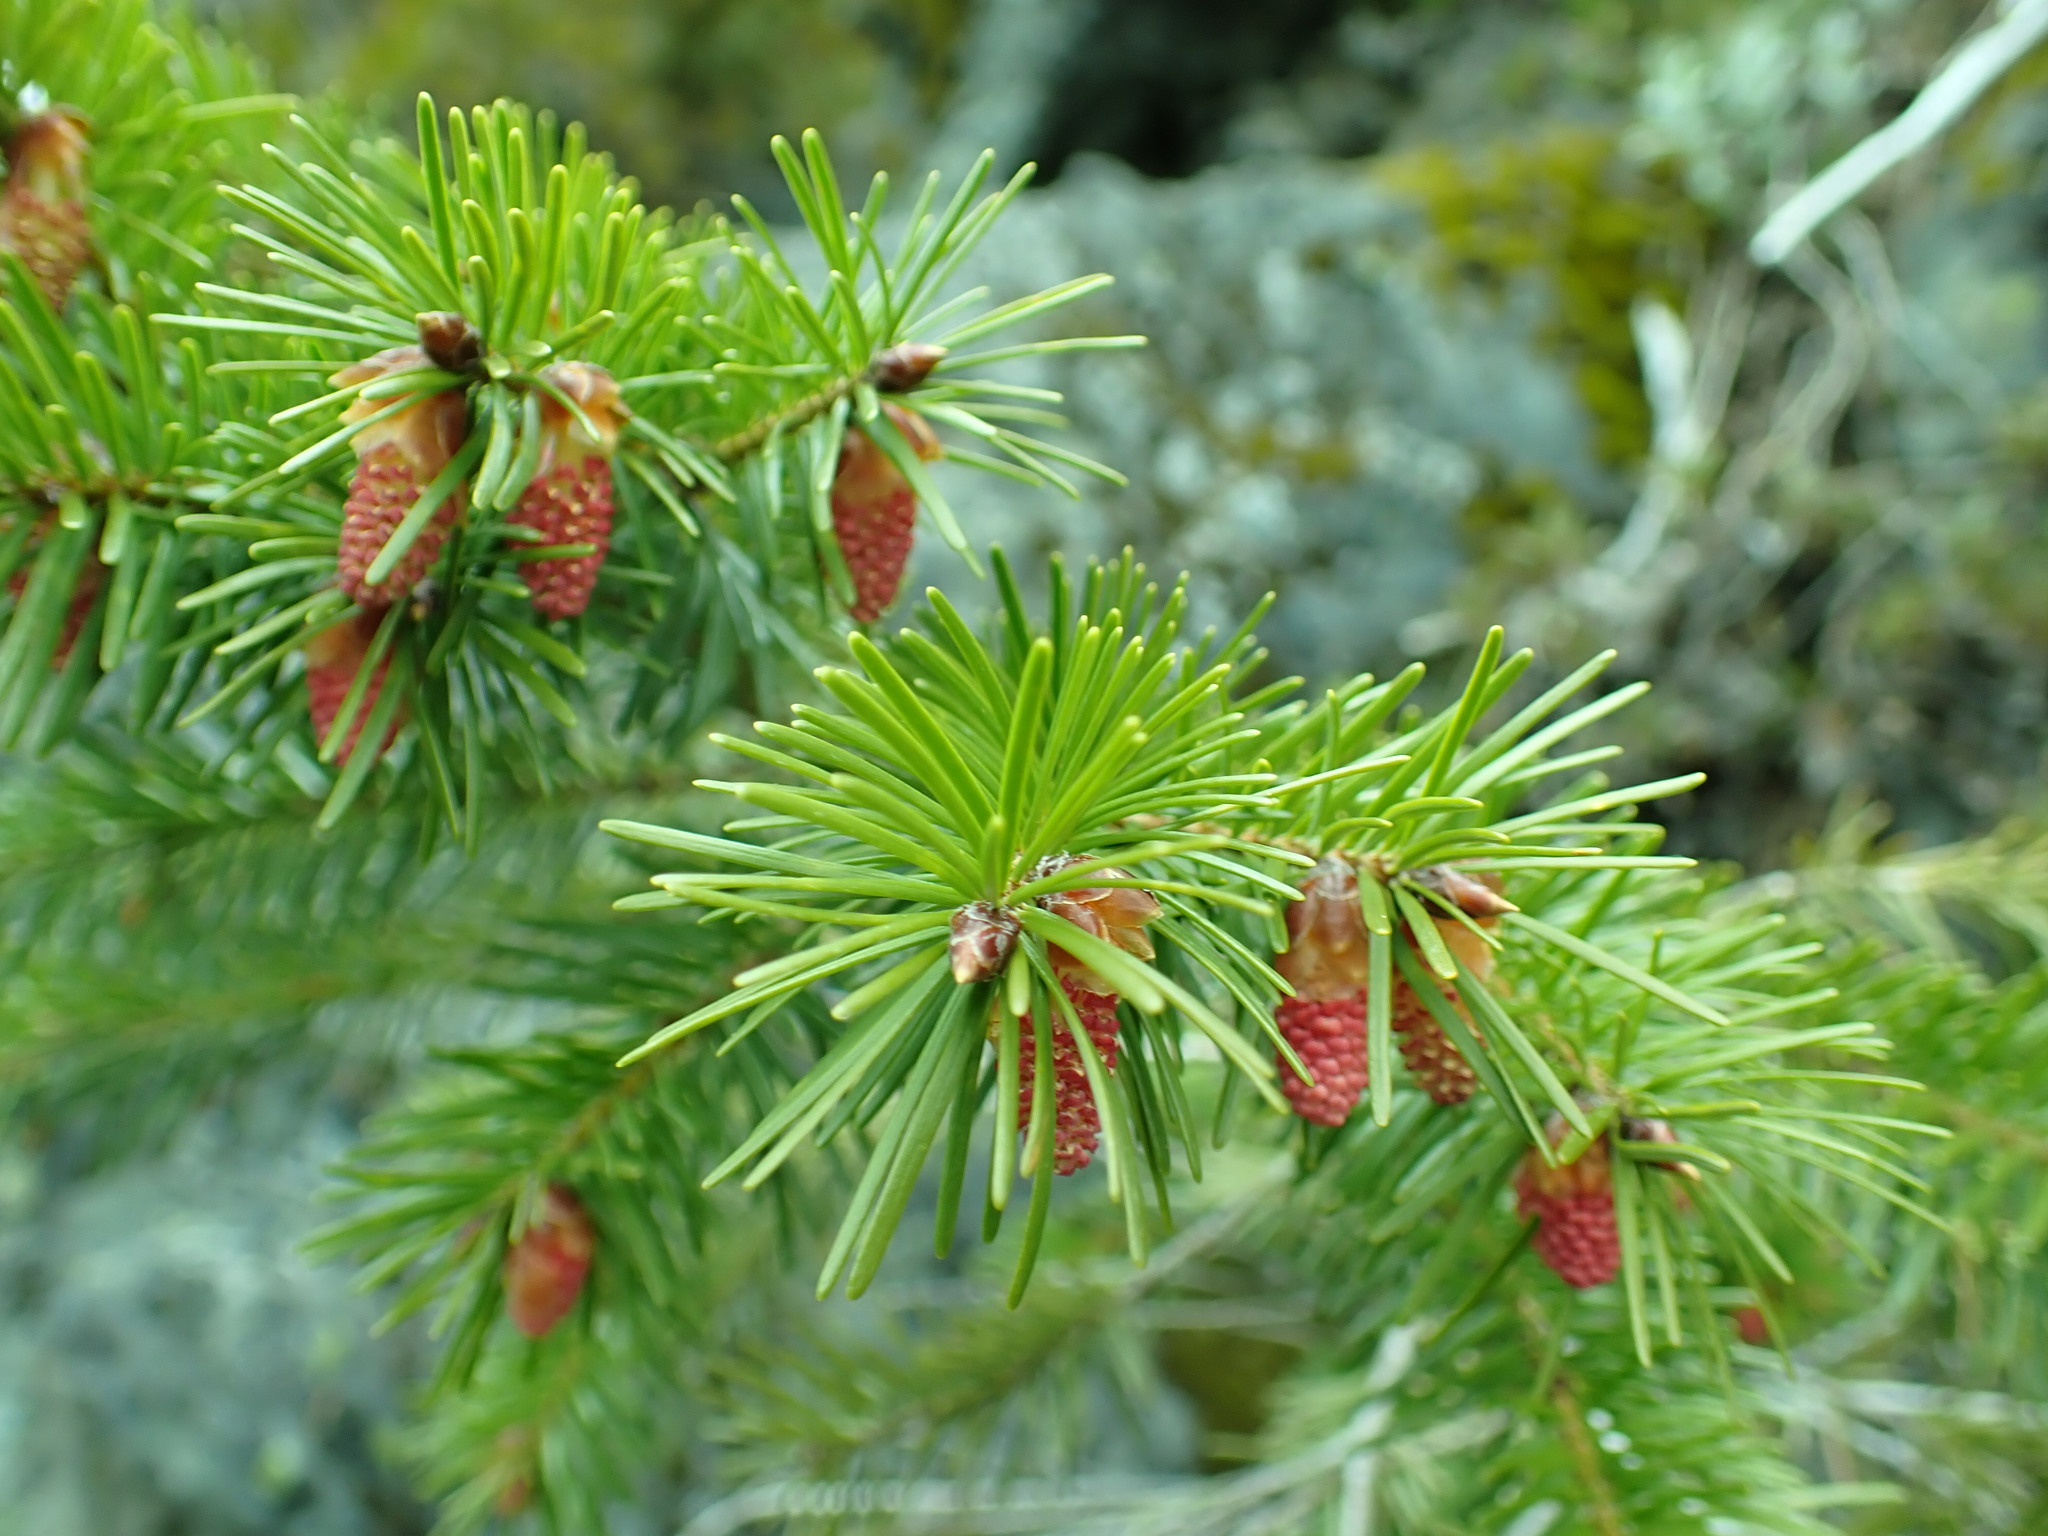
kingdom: Plantae
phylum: Tracheophyta
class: Pinopsida
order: Pinales
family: Pinaceae
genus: Pseudotsuga
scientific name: Pseudotsuga menziesii
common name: Douglas fir
